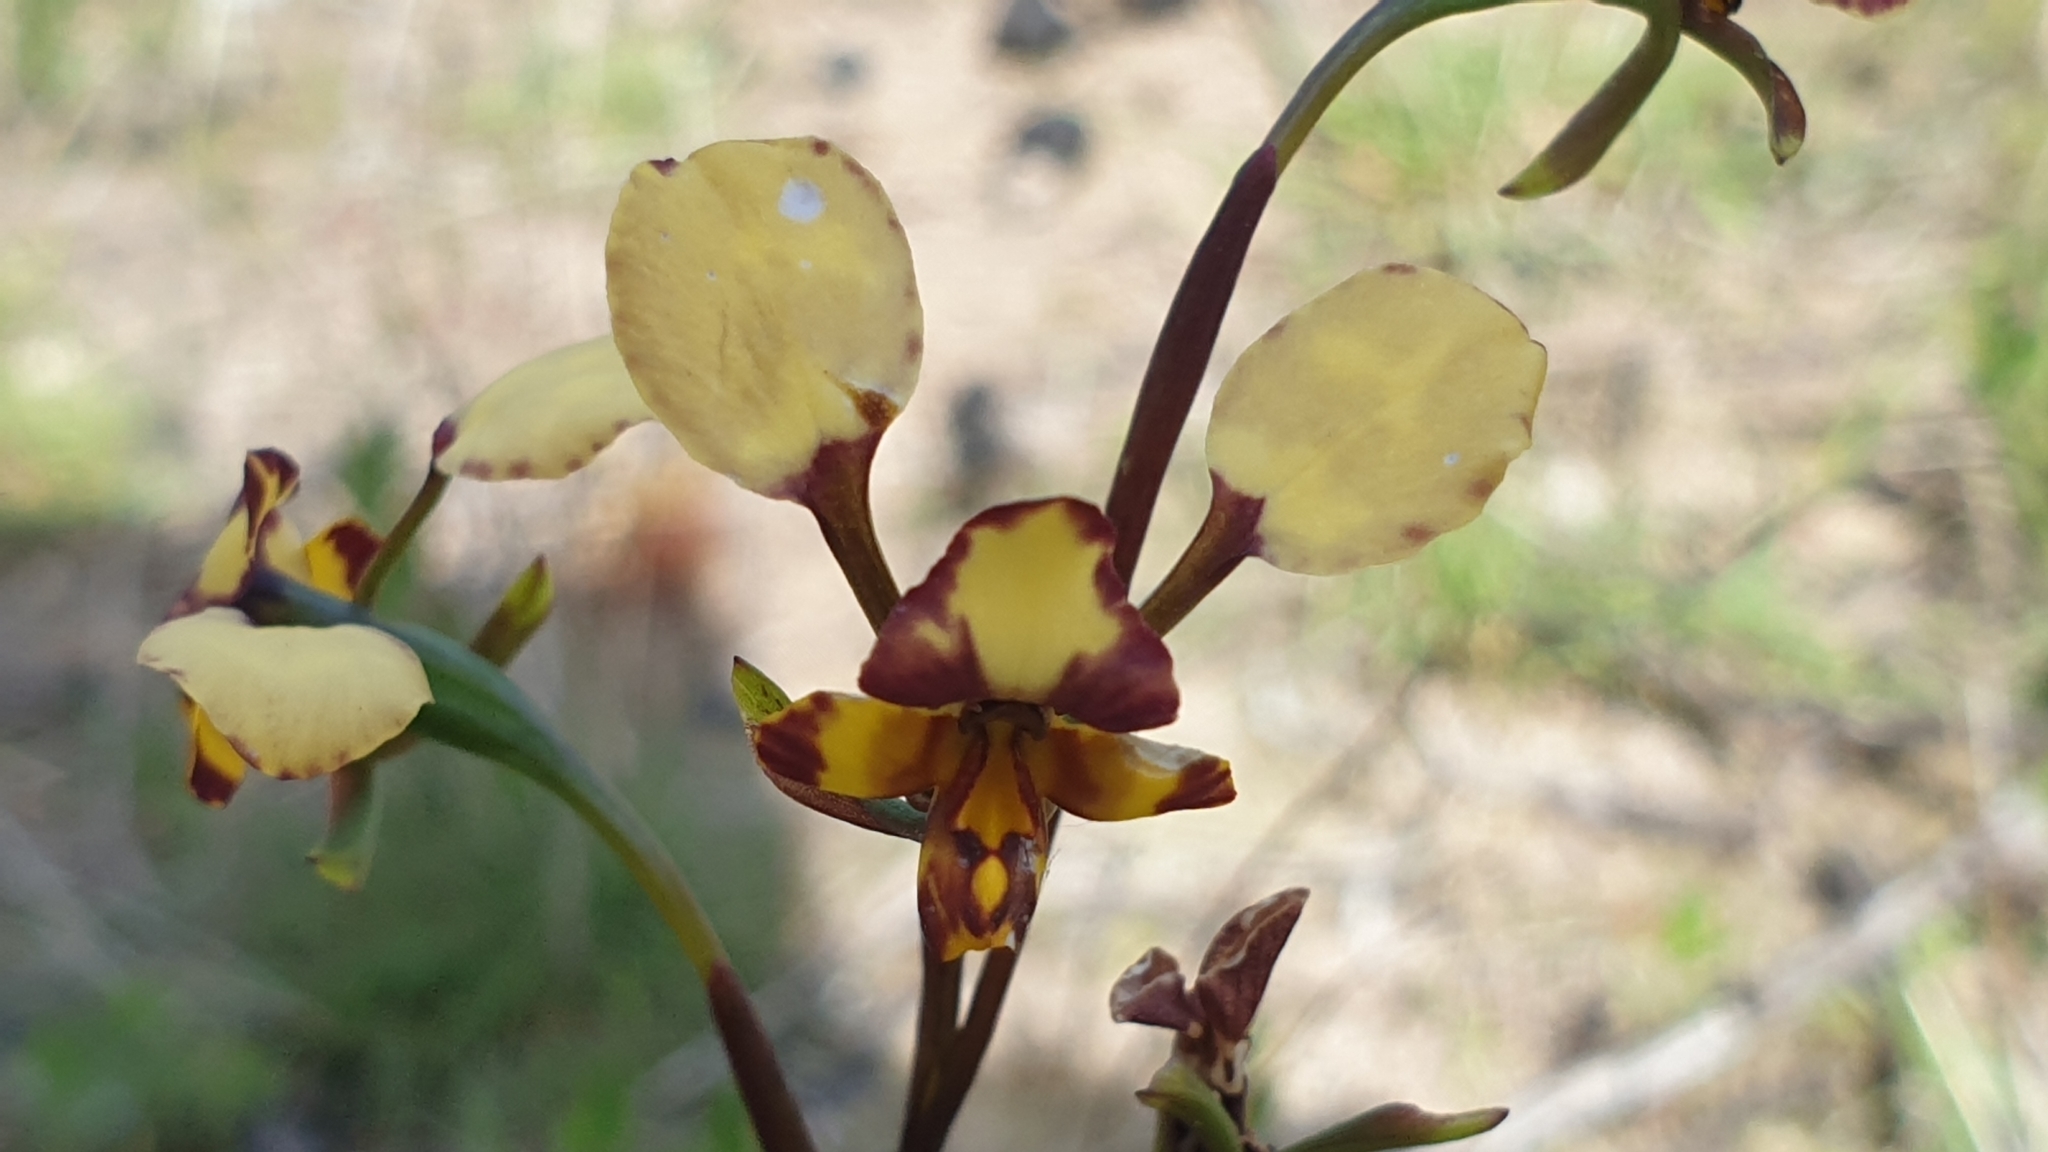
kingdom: Plantae
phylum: Tracheophyta
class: Liliopsida
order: Asparagales
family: Orchidaceae
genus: Diuris
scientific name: Diuris pardina
